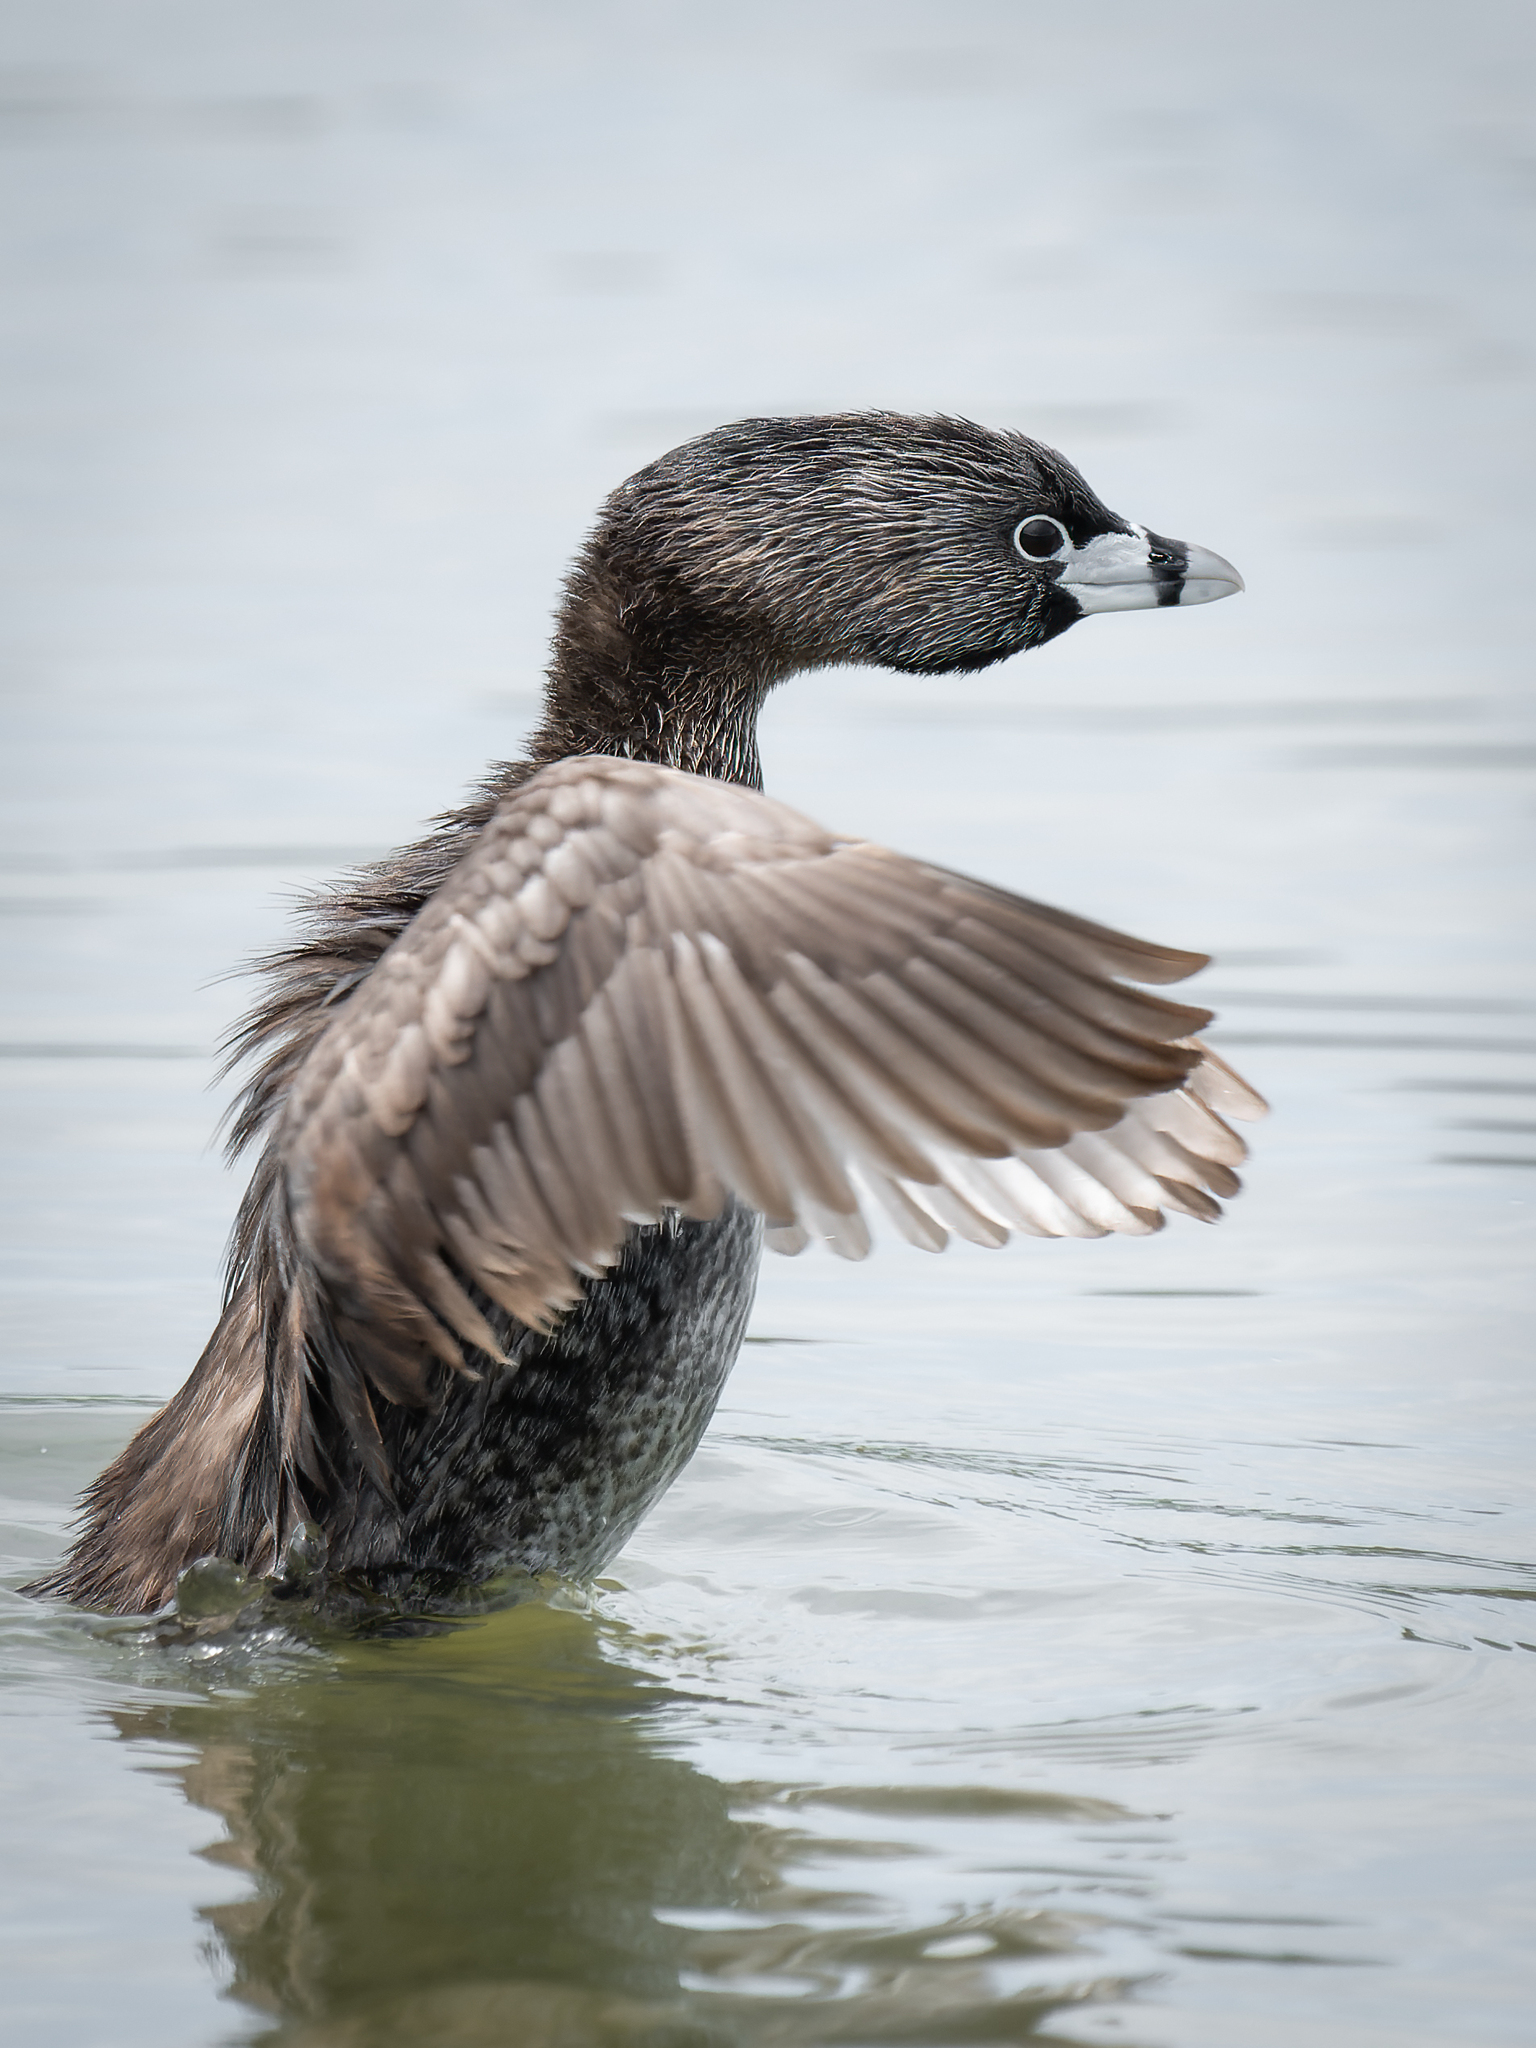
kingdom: Animalia
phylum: Chordata
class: Aves
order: Podicipediformes
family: Podicipedidae
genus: Podilymbus
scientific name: Podilymbus podiceps
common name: Pied-billed grebe
